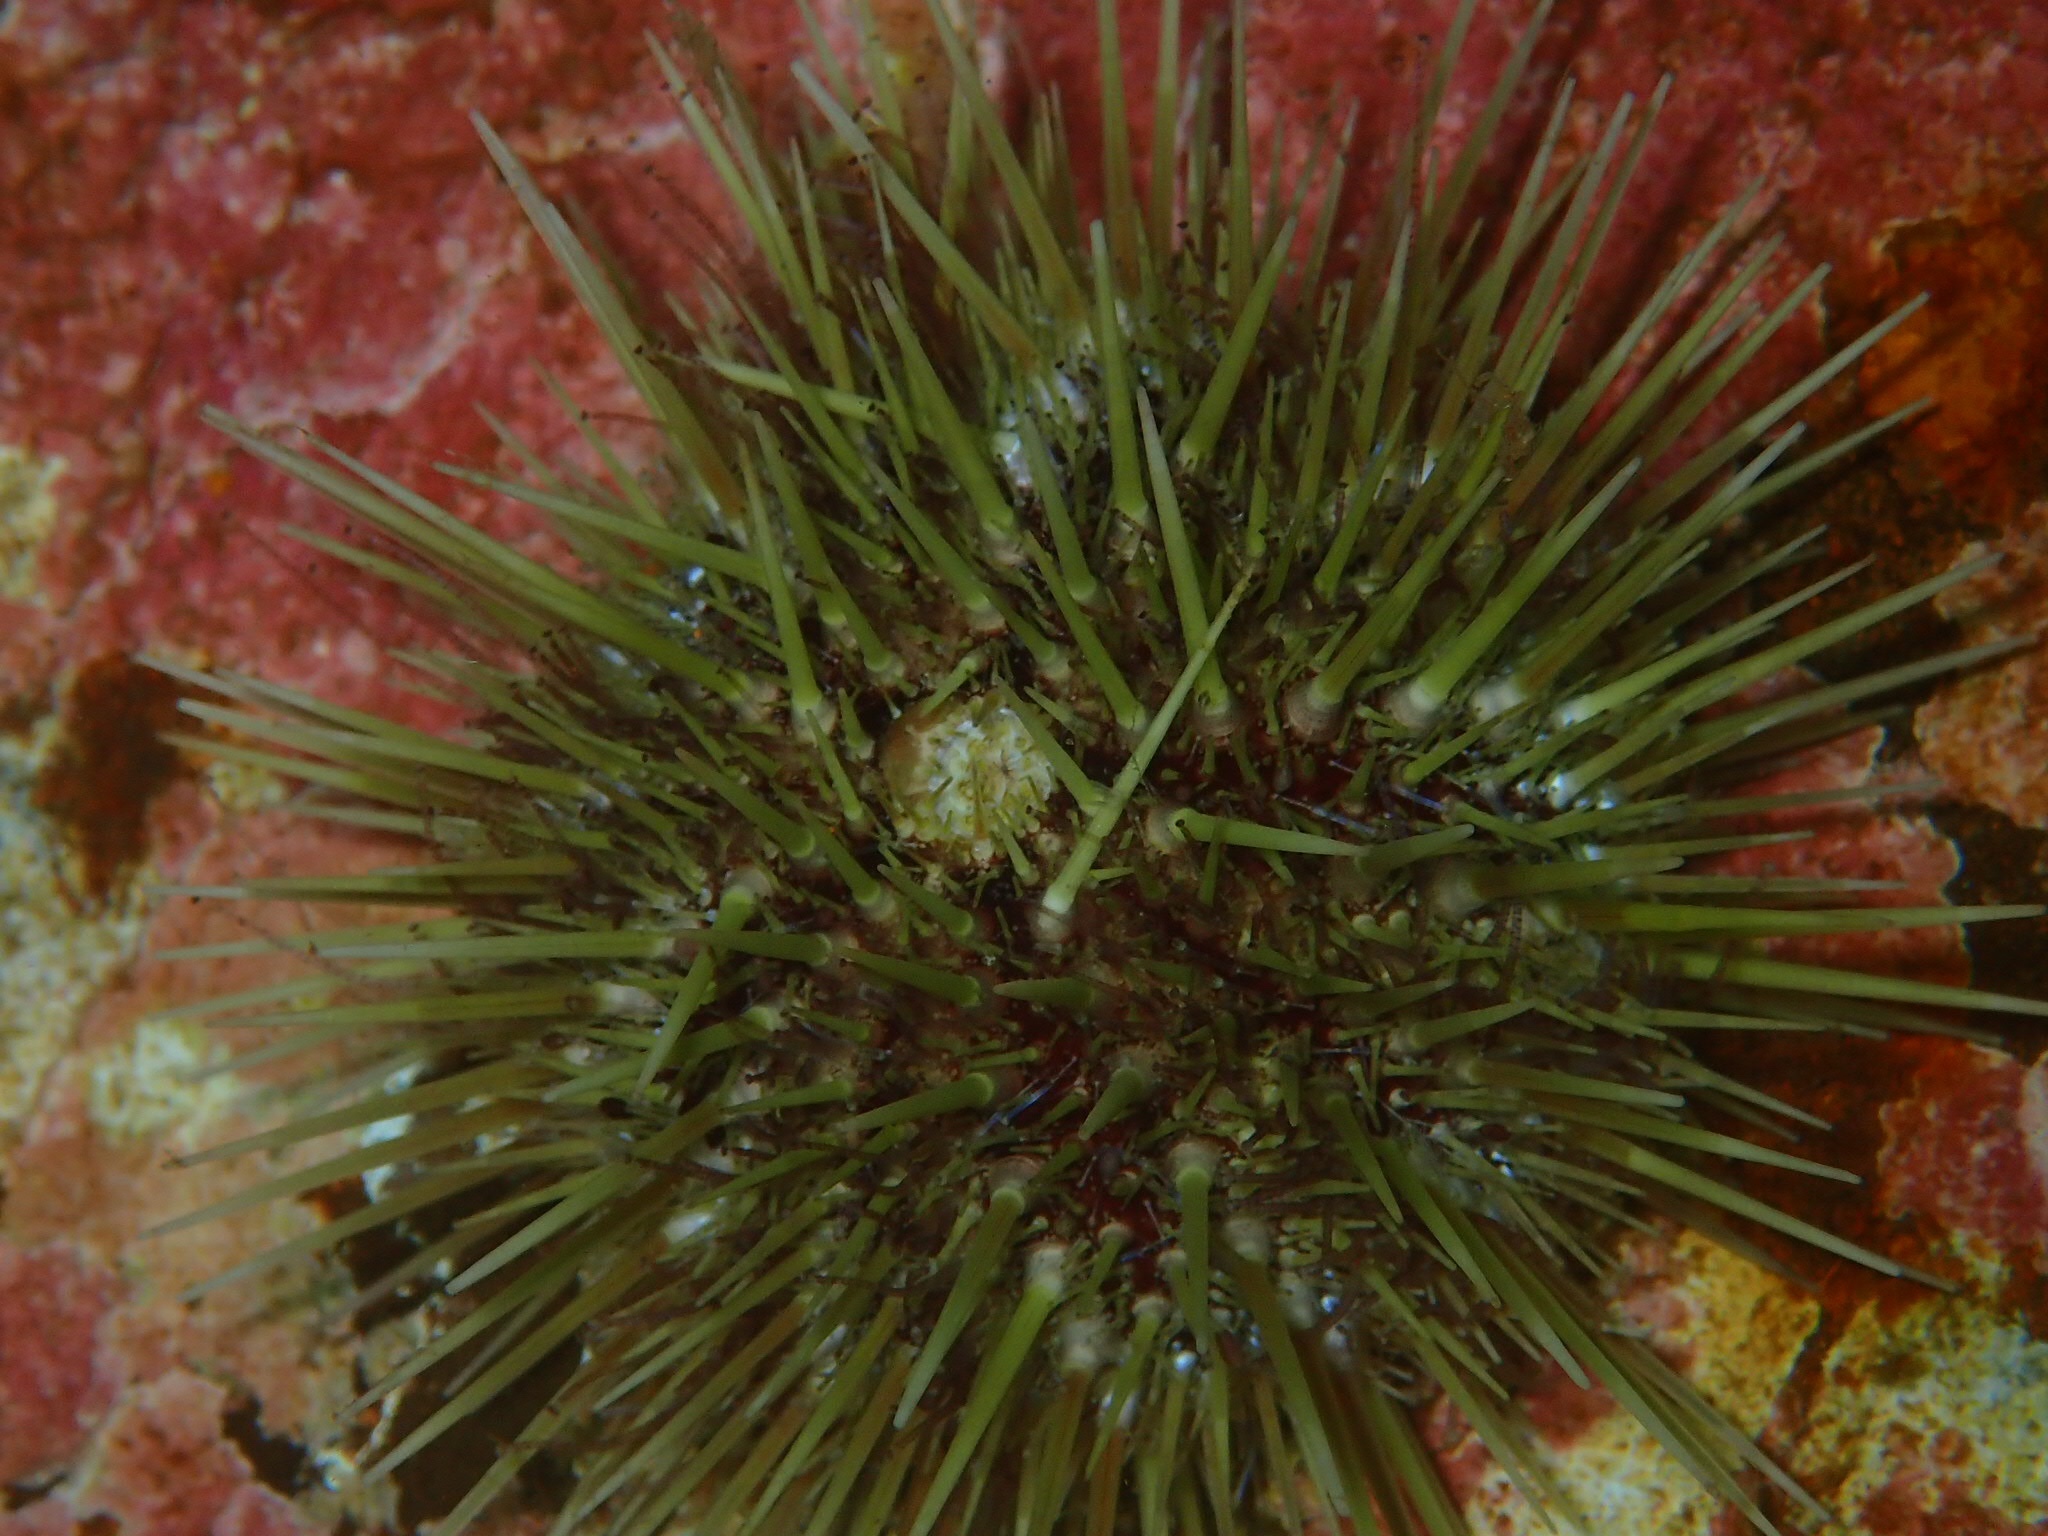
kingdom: Animalia
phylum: Echinodermata
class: Echinoidea
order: Camarodonta
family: Strongylocentrotidae
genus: Strongylocentrotus
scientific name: Strongylocentrotus droebachiensis
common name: Northern sea urchin
